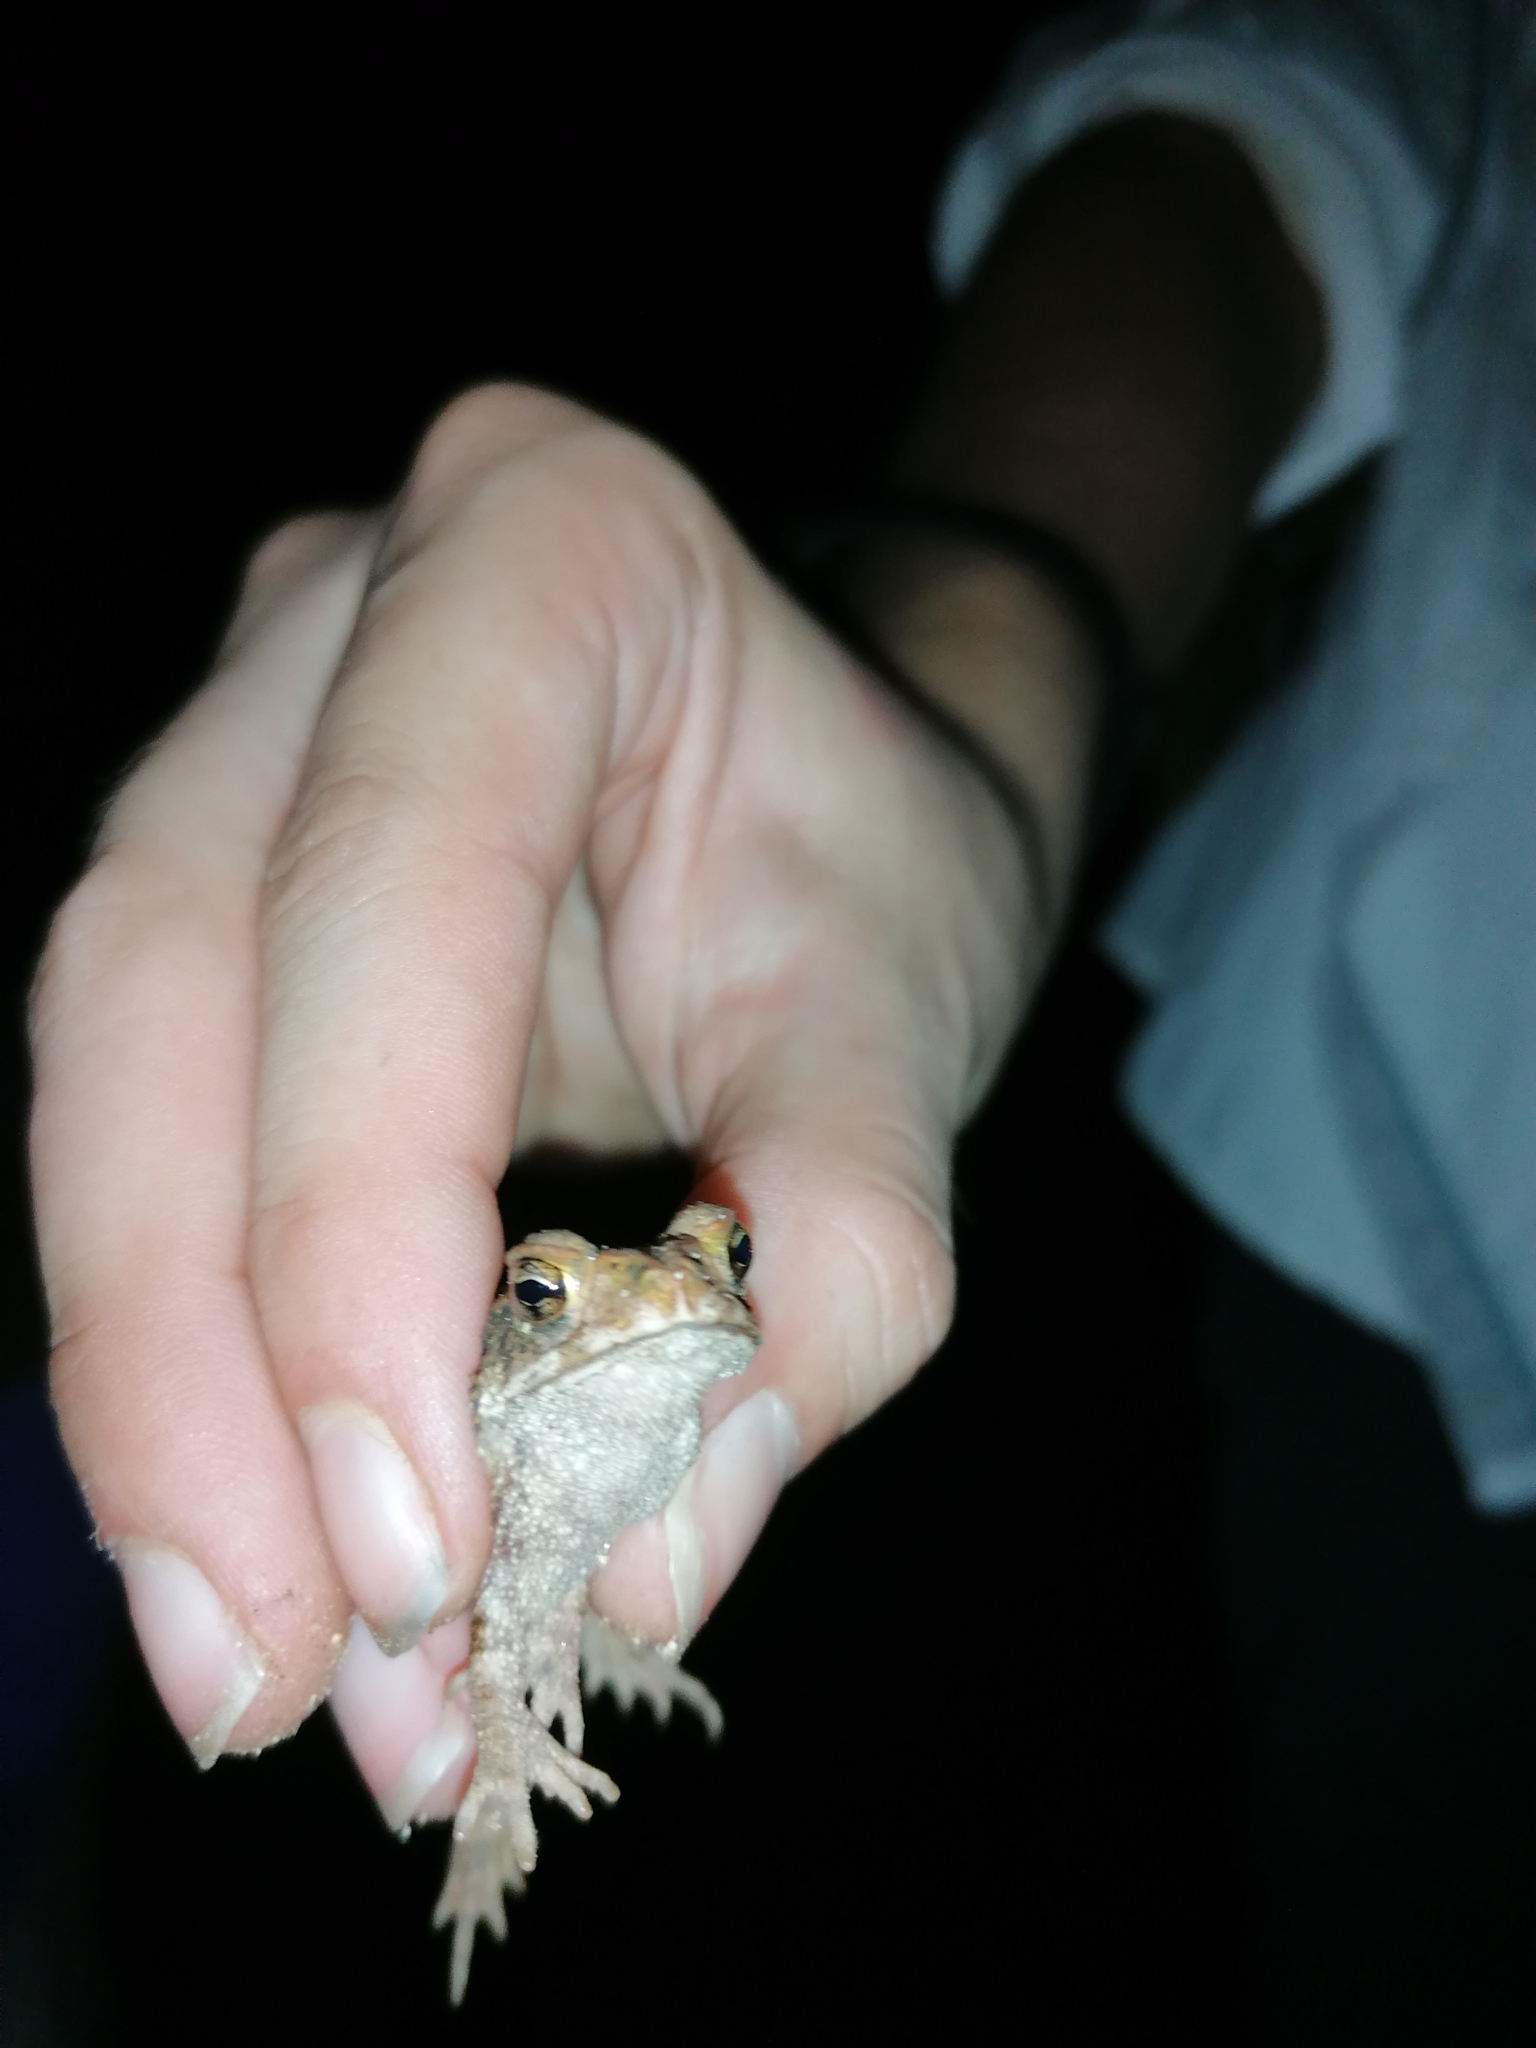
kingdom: Animalia
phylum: Chordata
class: Amphibia
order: Anura
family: Bufonidae
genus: Incilius
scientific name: Incilius valliceps
